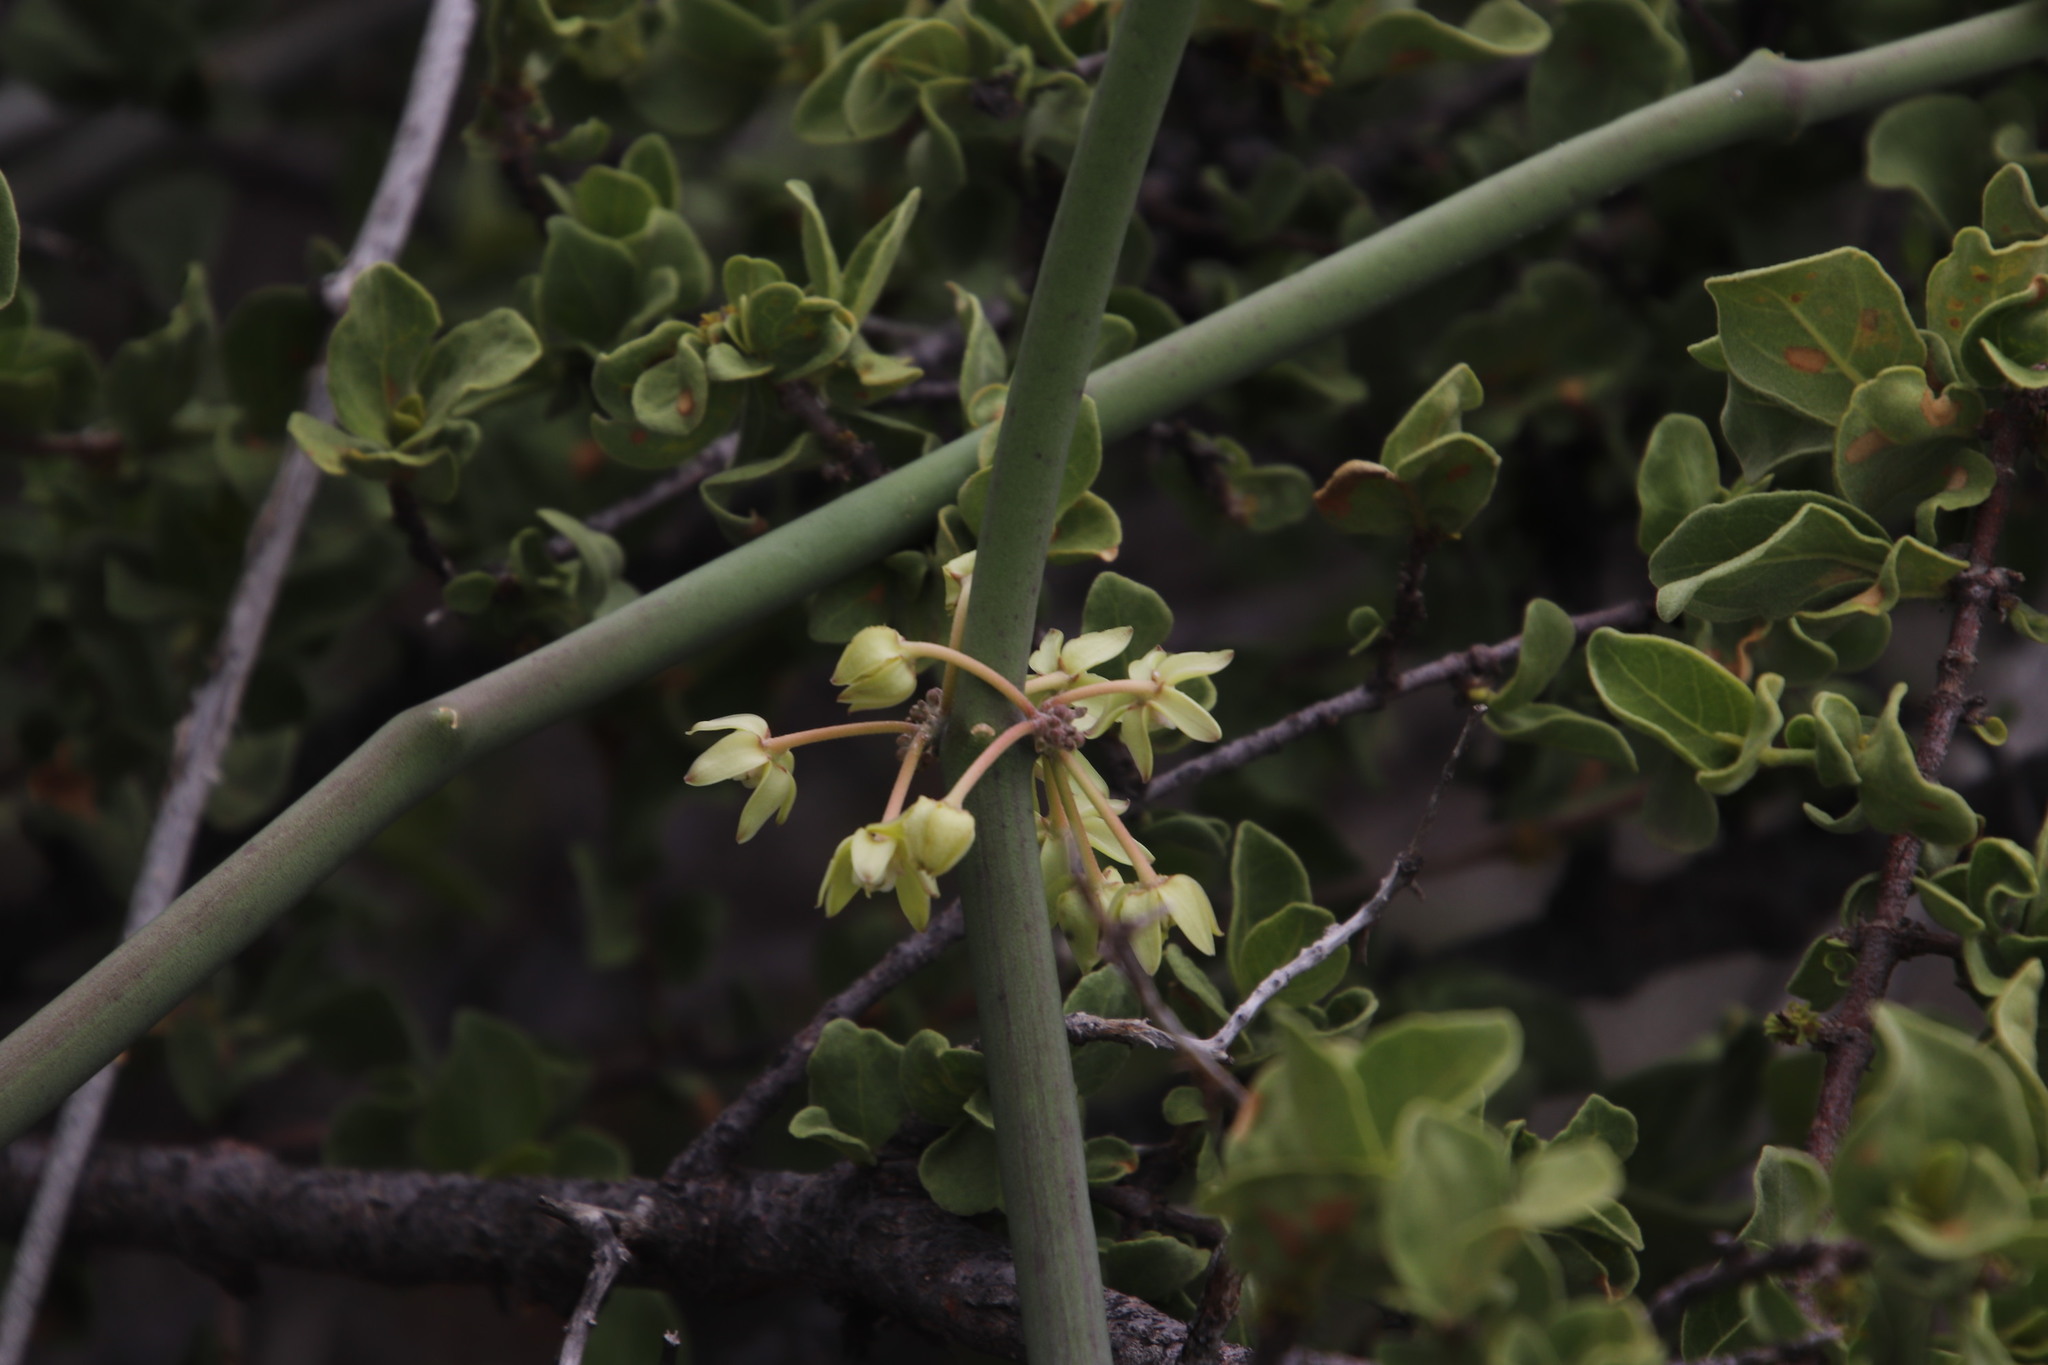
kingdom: Plantae
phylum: Tracheophyta
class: Magnoliopsida
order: Gentianales
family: Apocynaceae
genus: Cynanchum
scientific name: Cynanchum viminale
